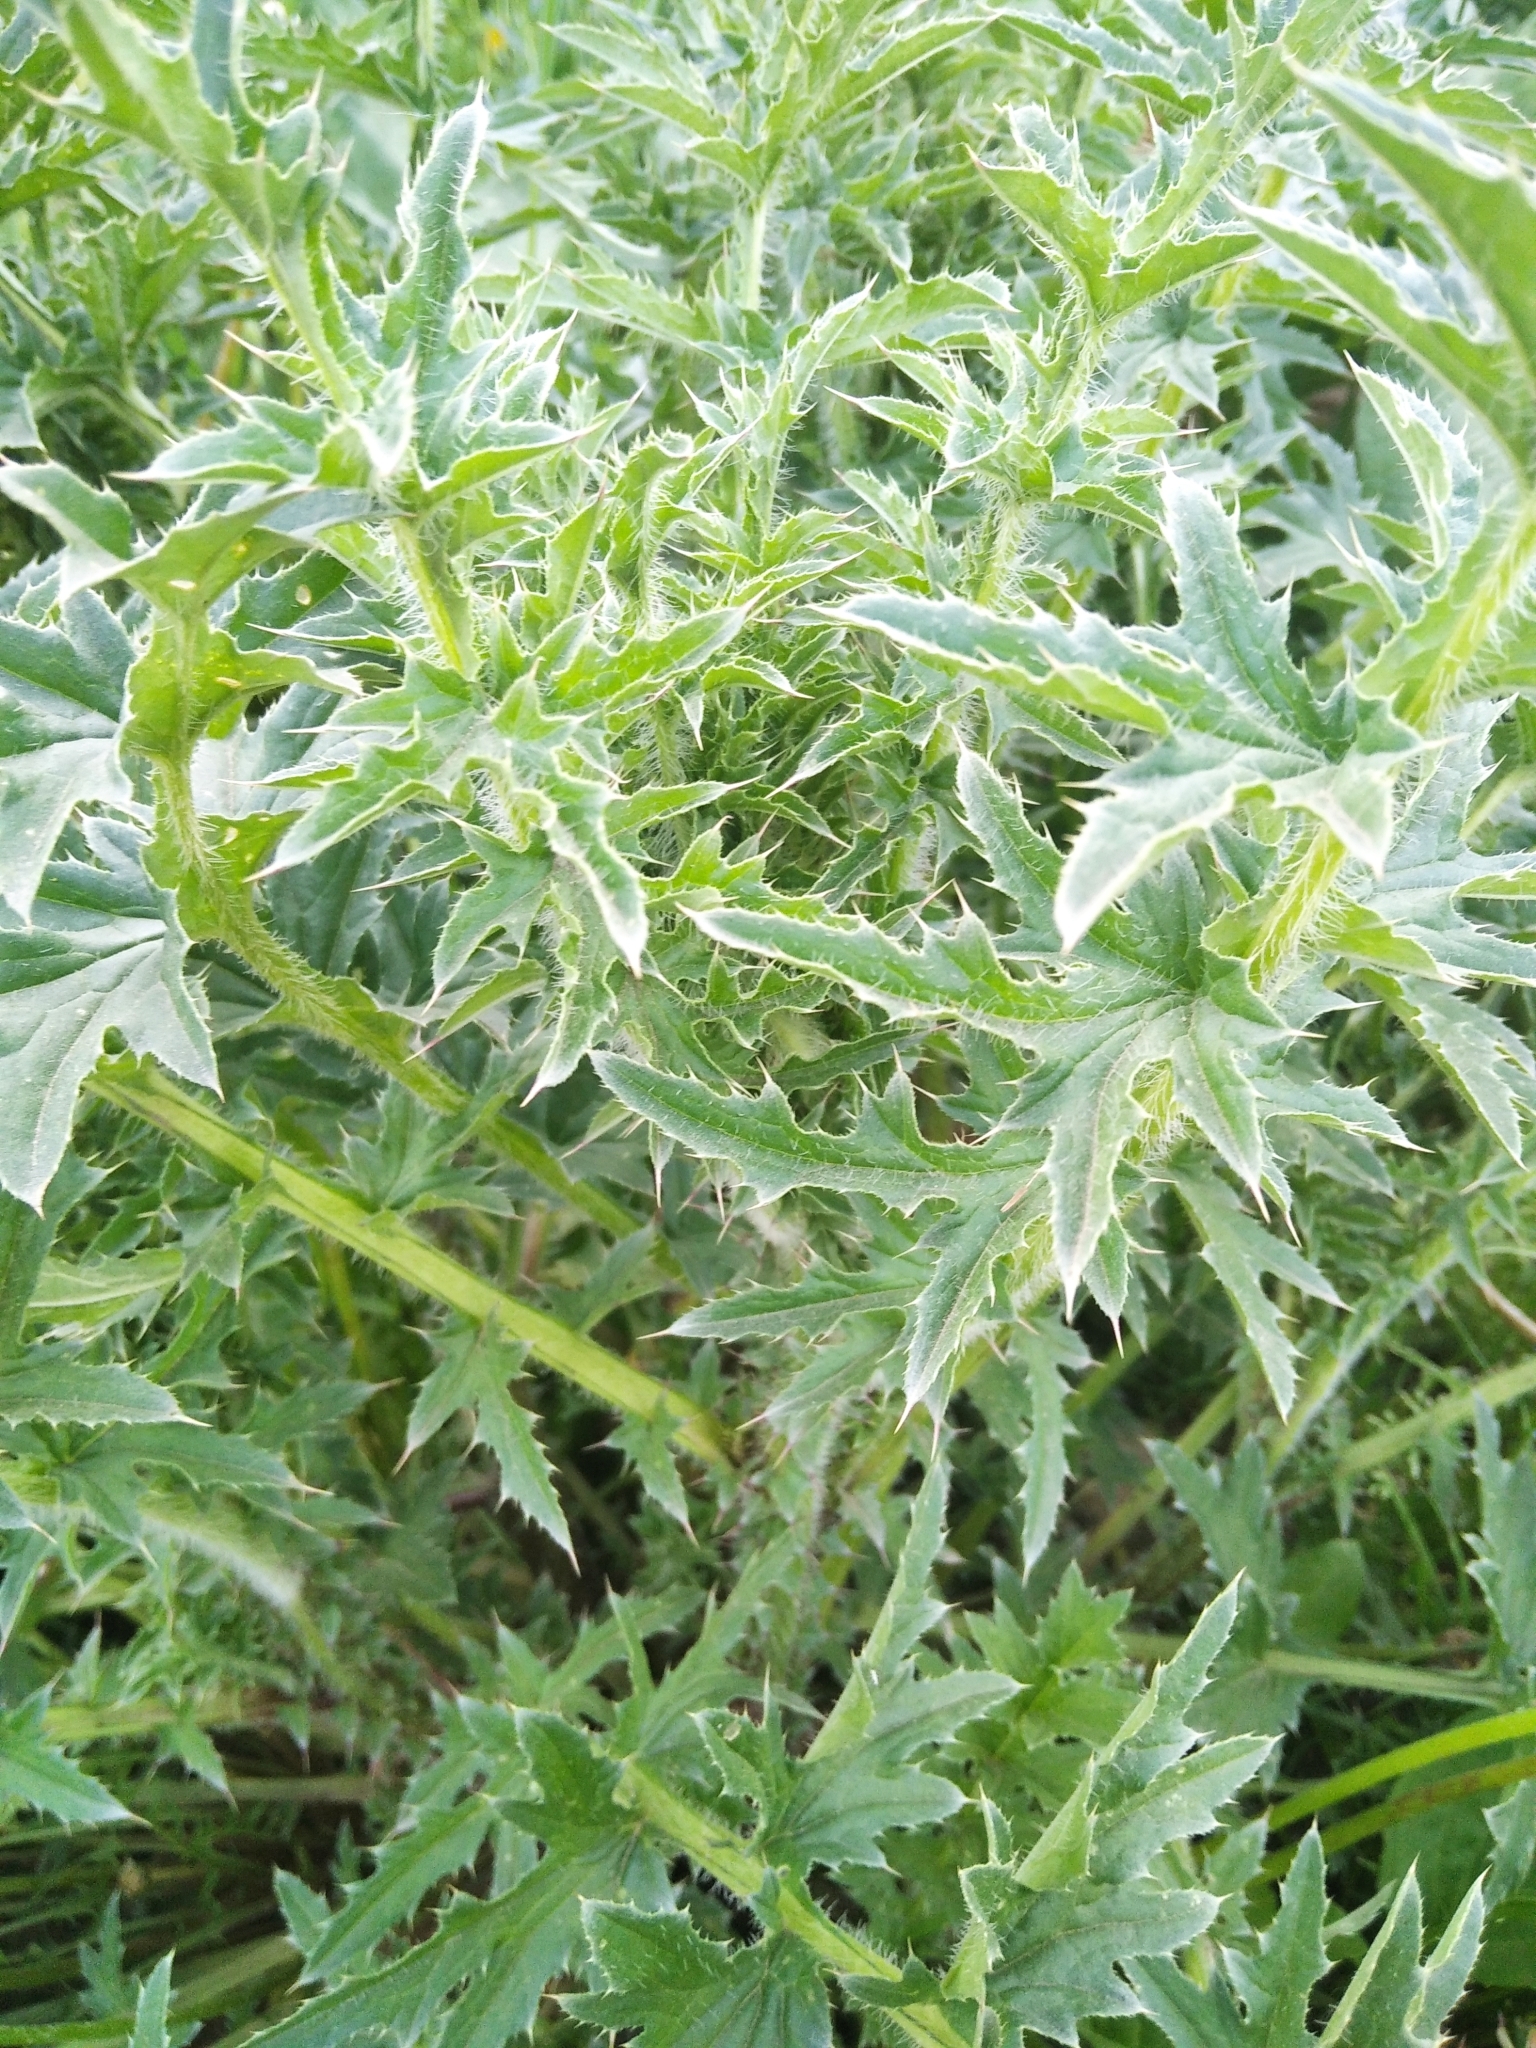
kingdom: Plantae
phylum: Tracheophyta
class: Magnoliopsida
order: Asterales
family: Asteraceae
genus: Carduus
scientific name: Carduus acanthoides
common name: Plumeless thistle
